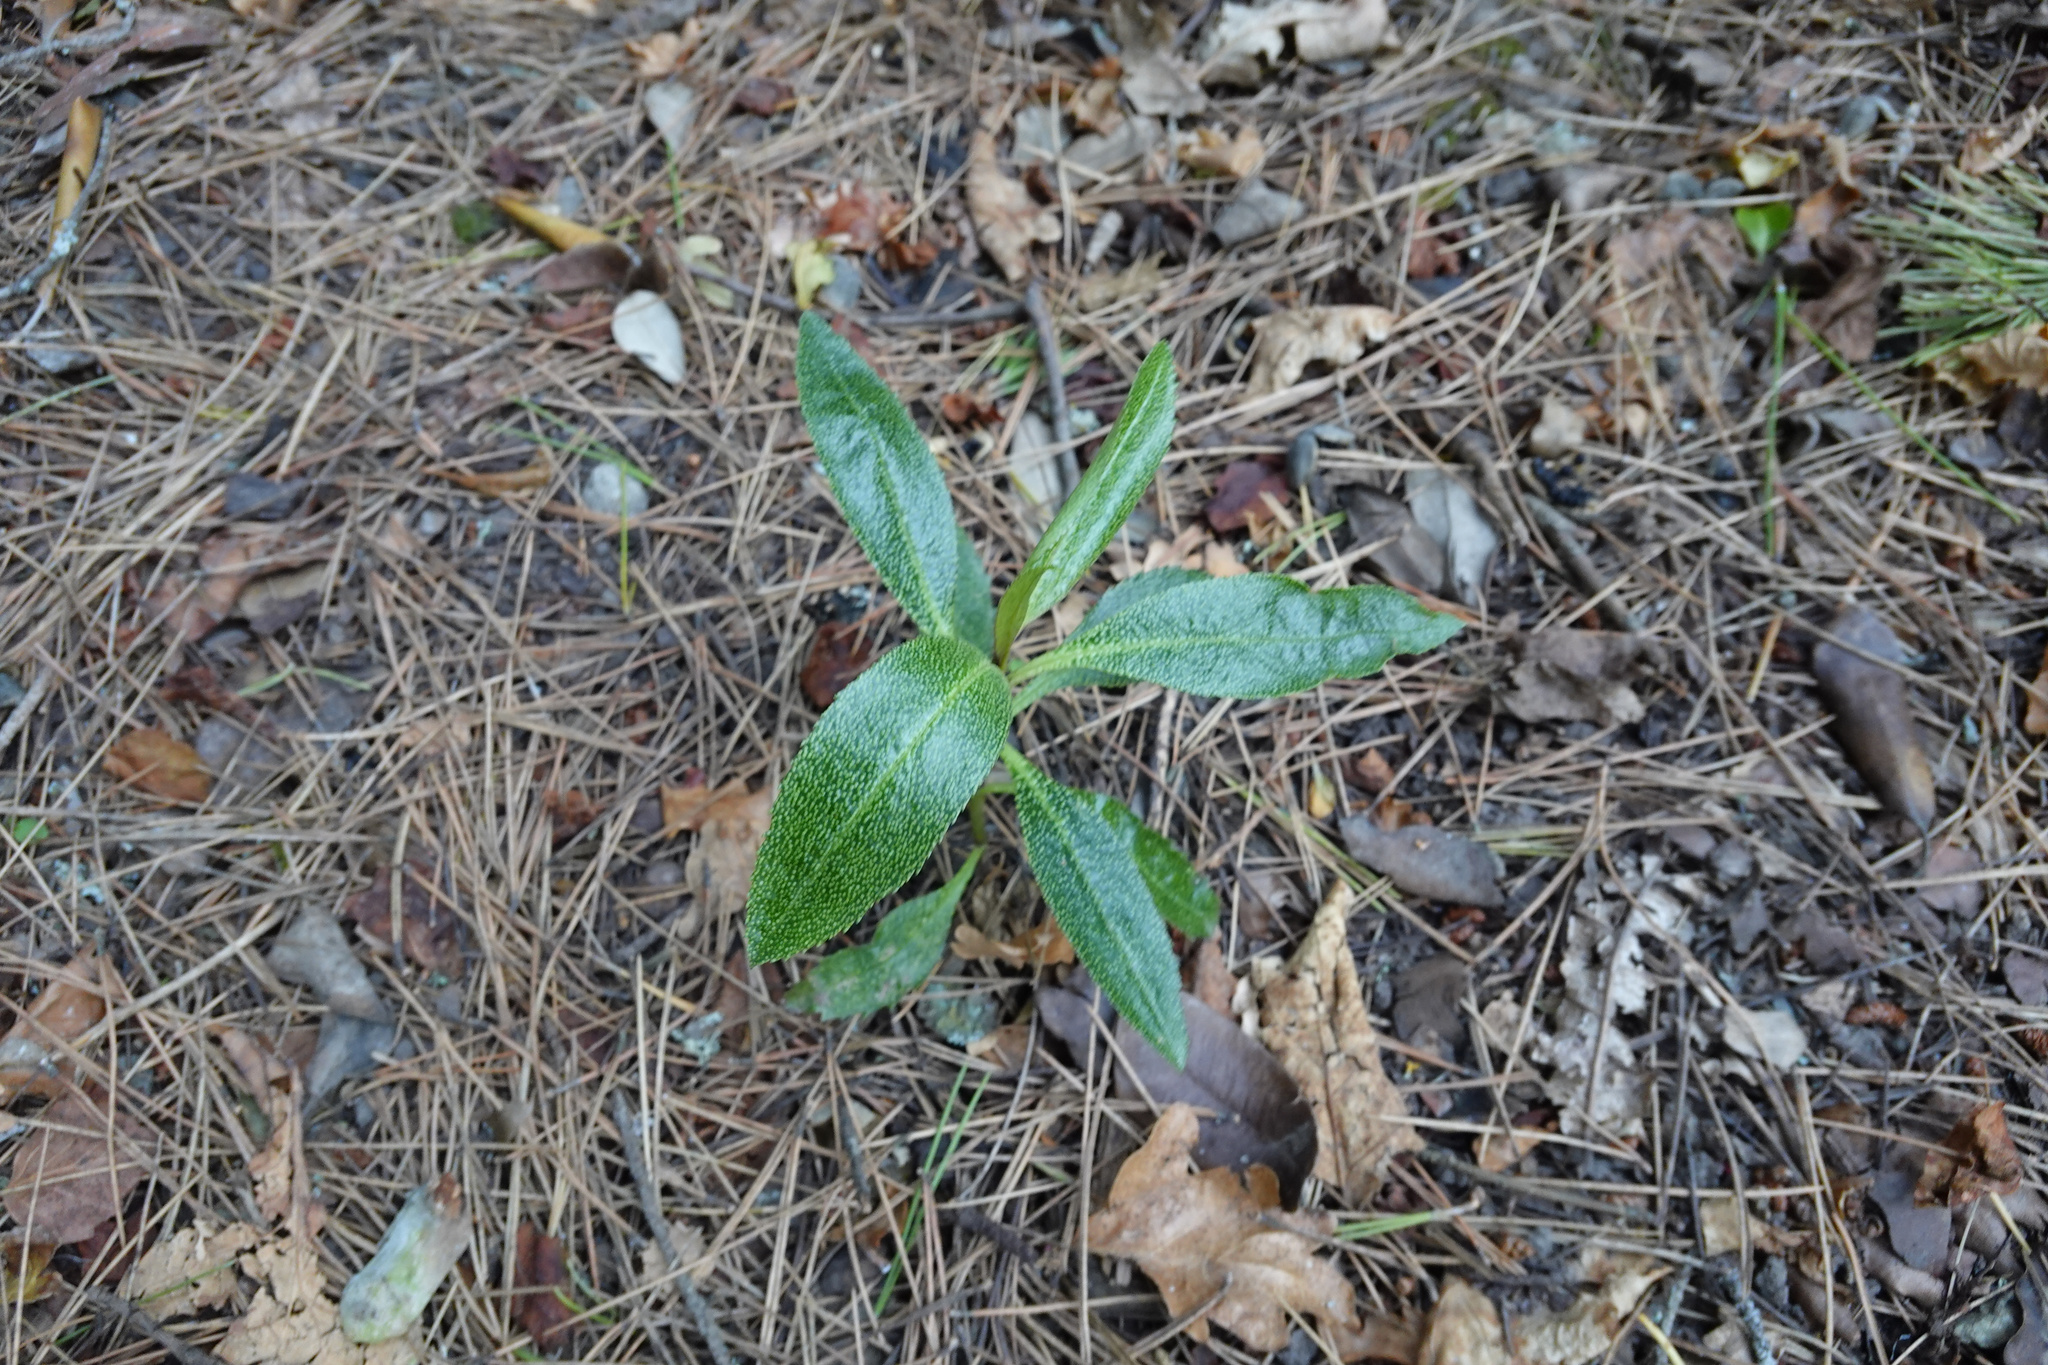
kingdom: Plantae
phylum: Tracheophyta
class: Magnoliopsida
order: Lamiales
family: Scrophulariaceae
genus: Myoporum
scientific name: Myoporum laetum
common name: Ngaio tree
